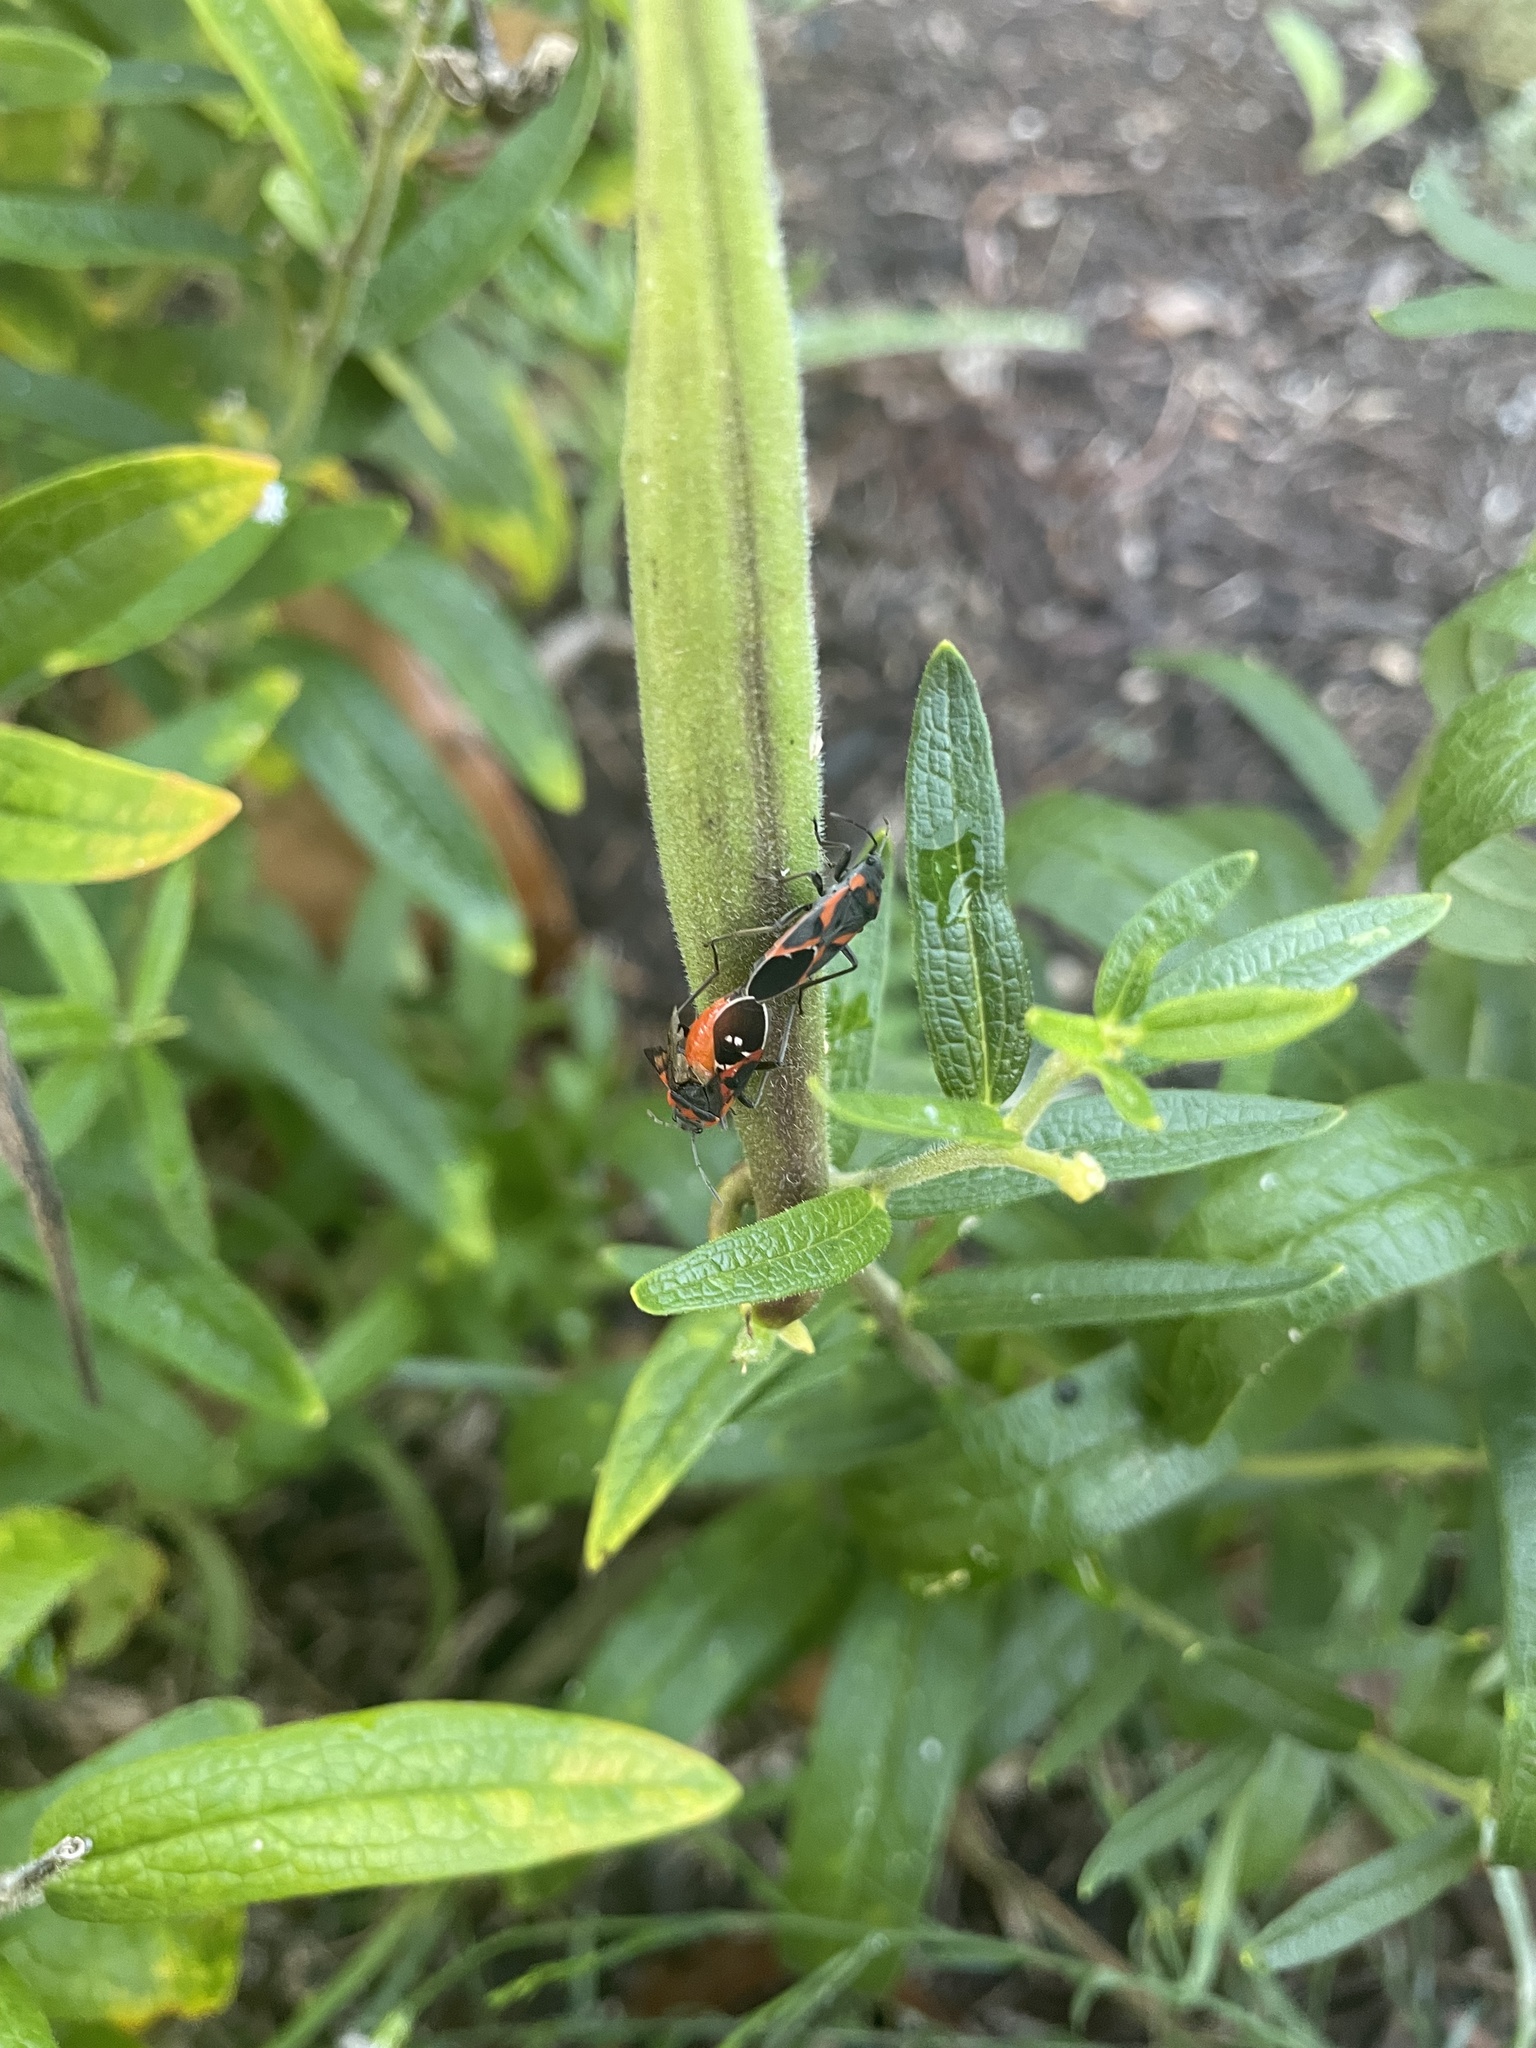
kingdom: Animalia
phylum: Arthropoda
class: Insecta
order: Hemiptera
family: Lygaeidae
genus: Lygaeus
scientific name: Lygaeus kalmii
